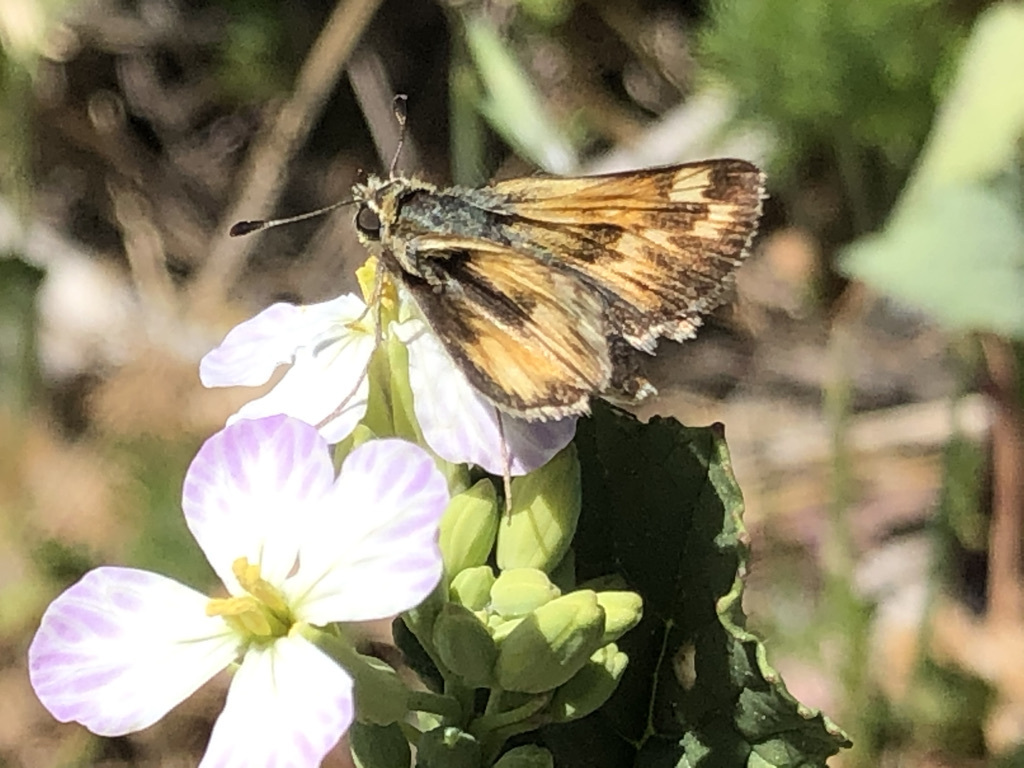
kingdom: Animalia
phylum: Arthropoda
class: Insecta
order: Lepidoptera
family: Hesperiidae
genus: Polites
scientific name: Polites sabuleti
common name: Sandhill skipper
